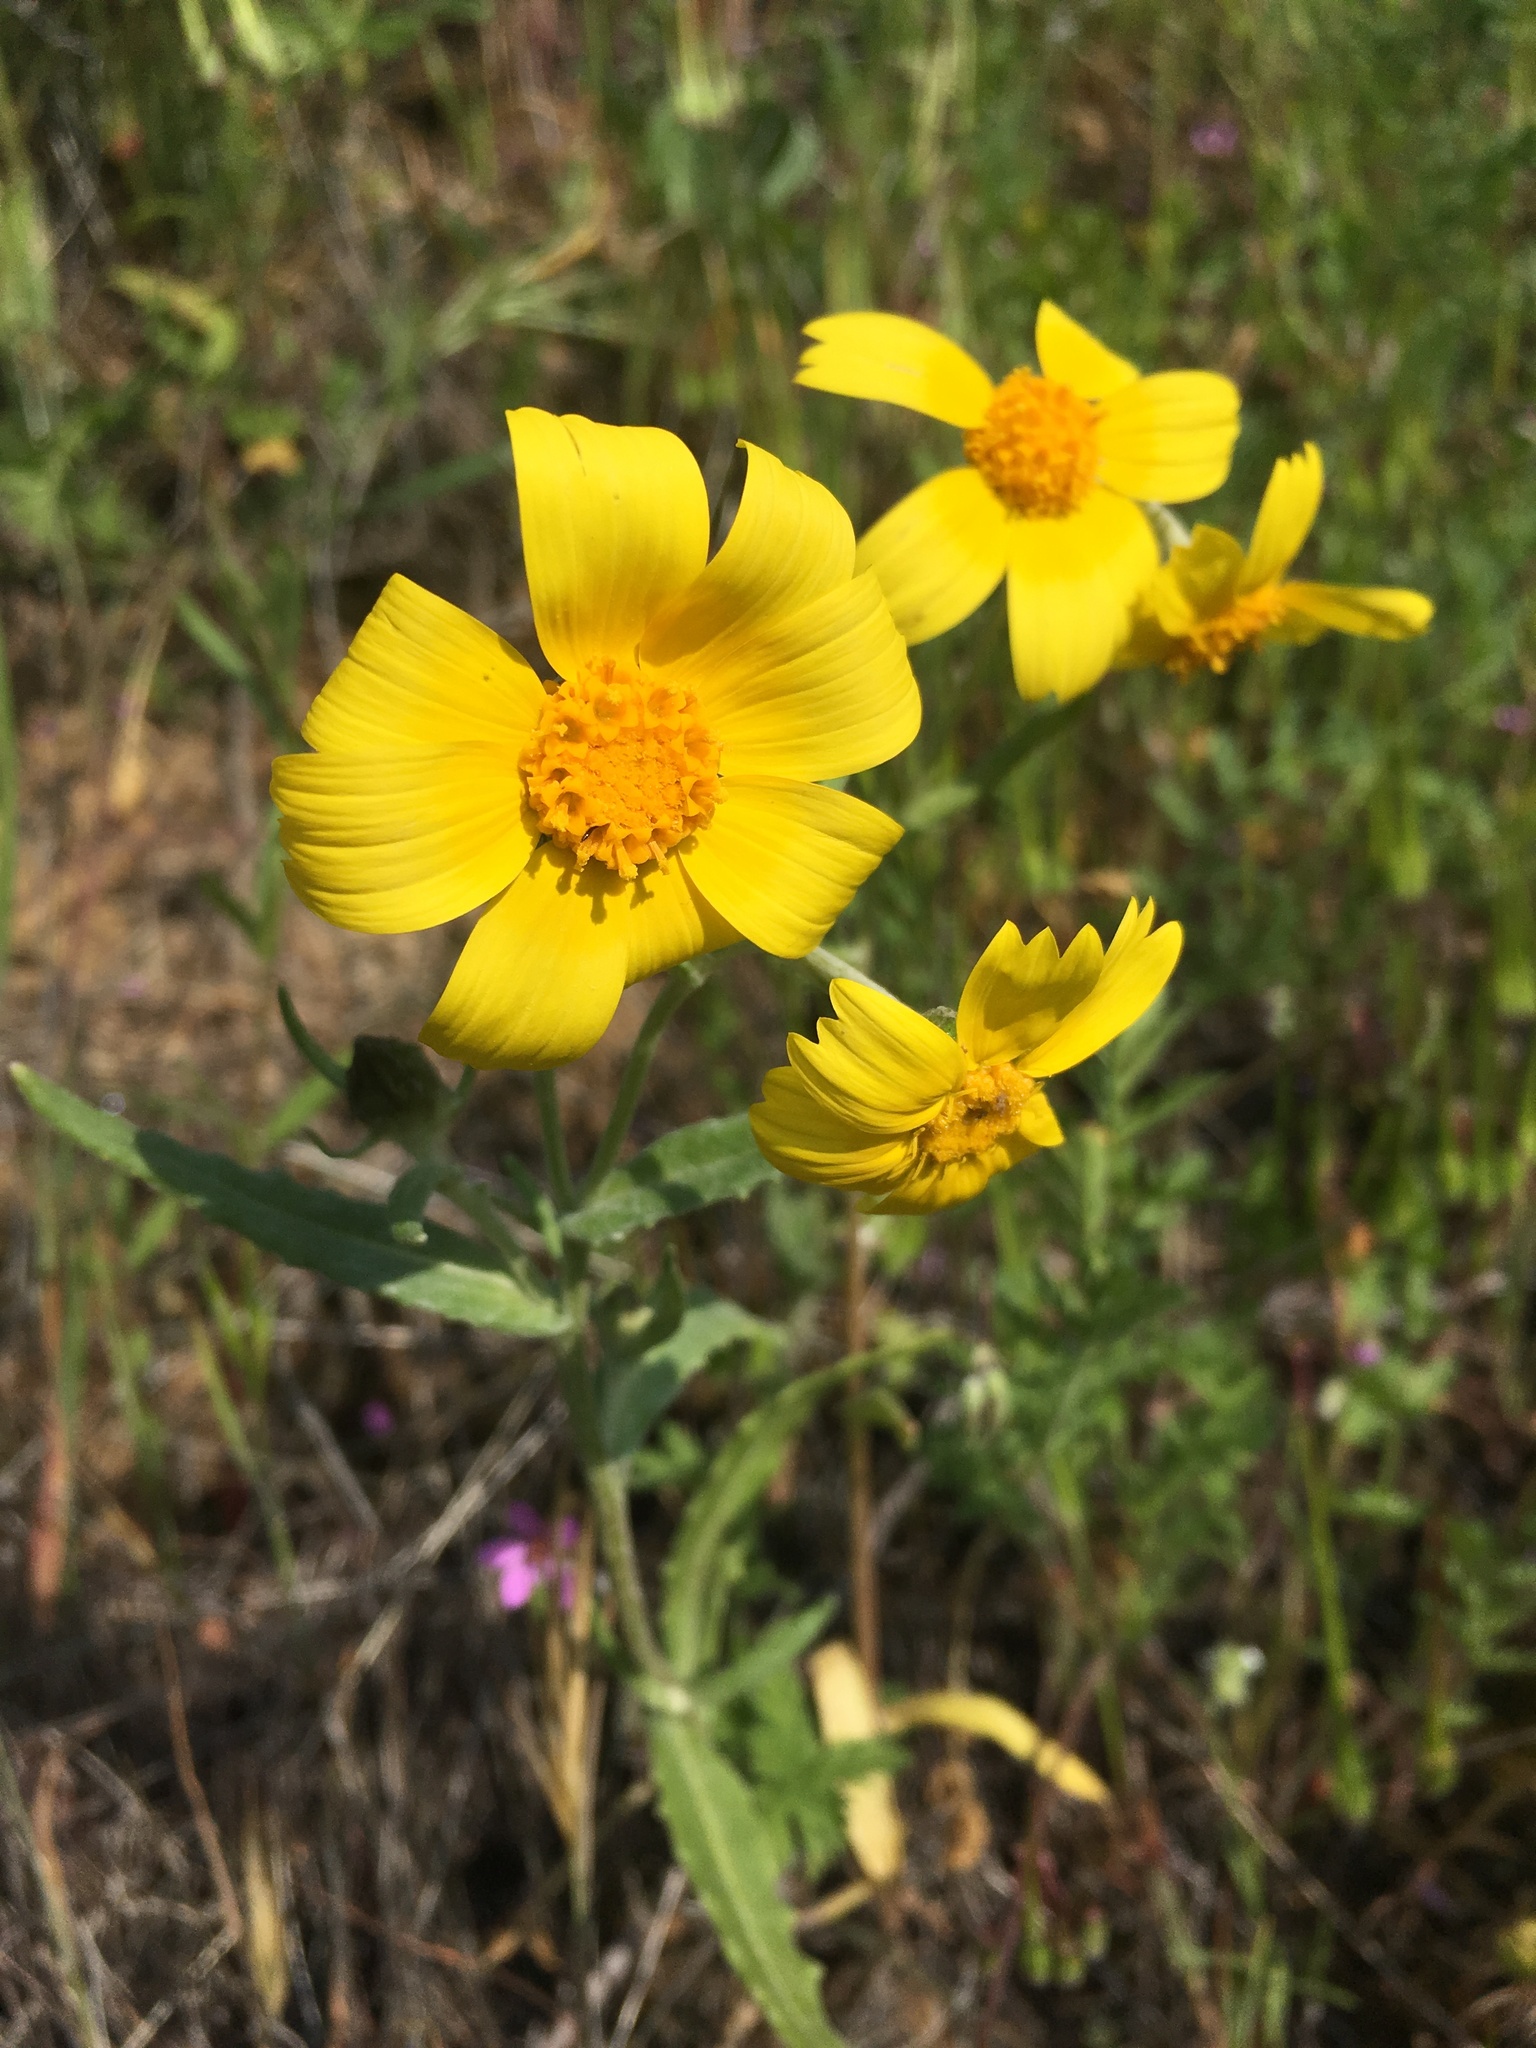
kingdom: Plantae
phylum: Tracheophyta
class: Magnoliopsida
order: Asterales
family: Asteraceae
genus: Monolopia
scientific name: Monolopia lanceolata
